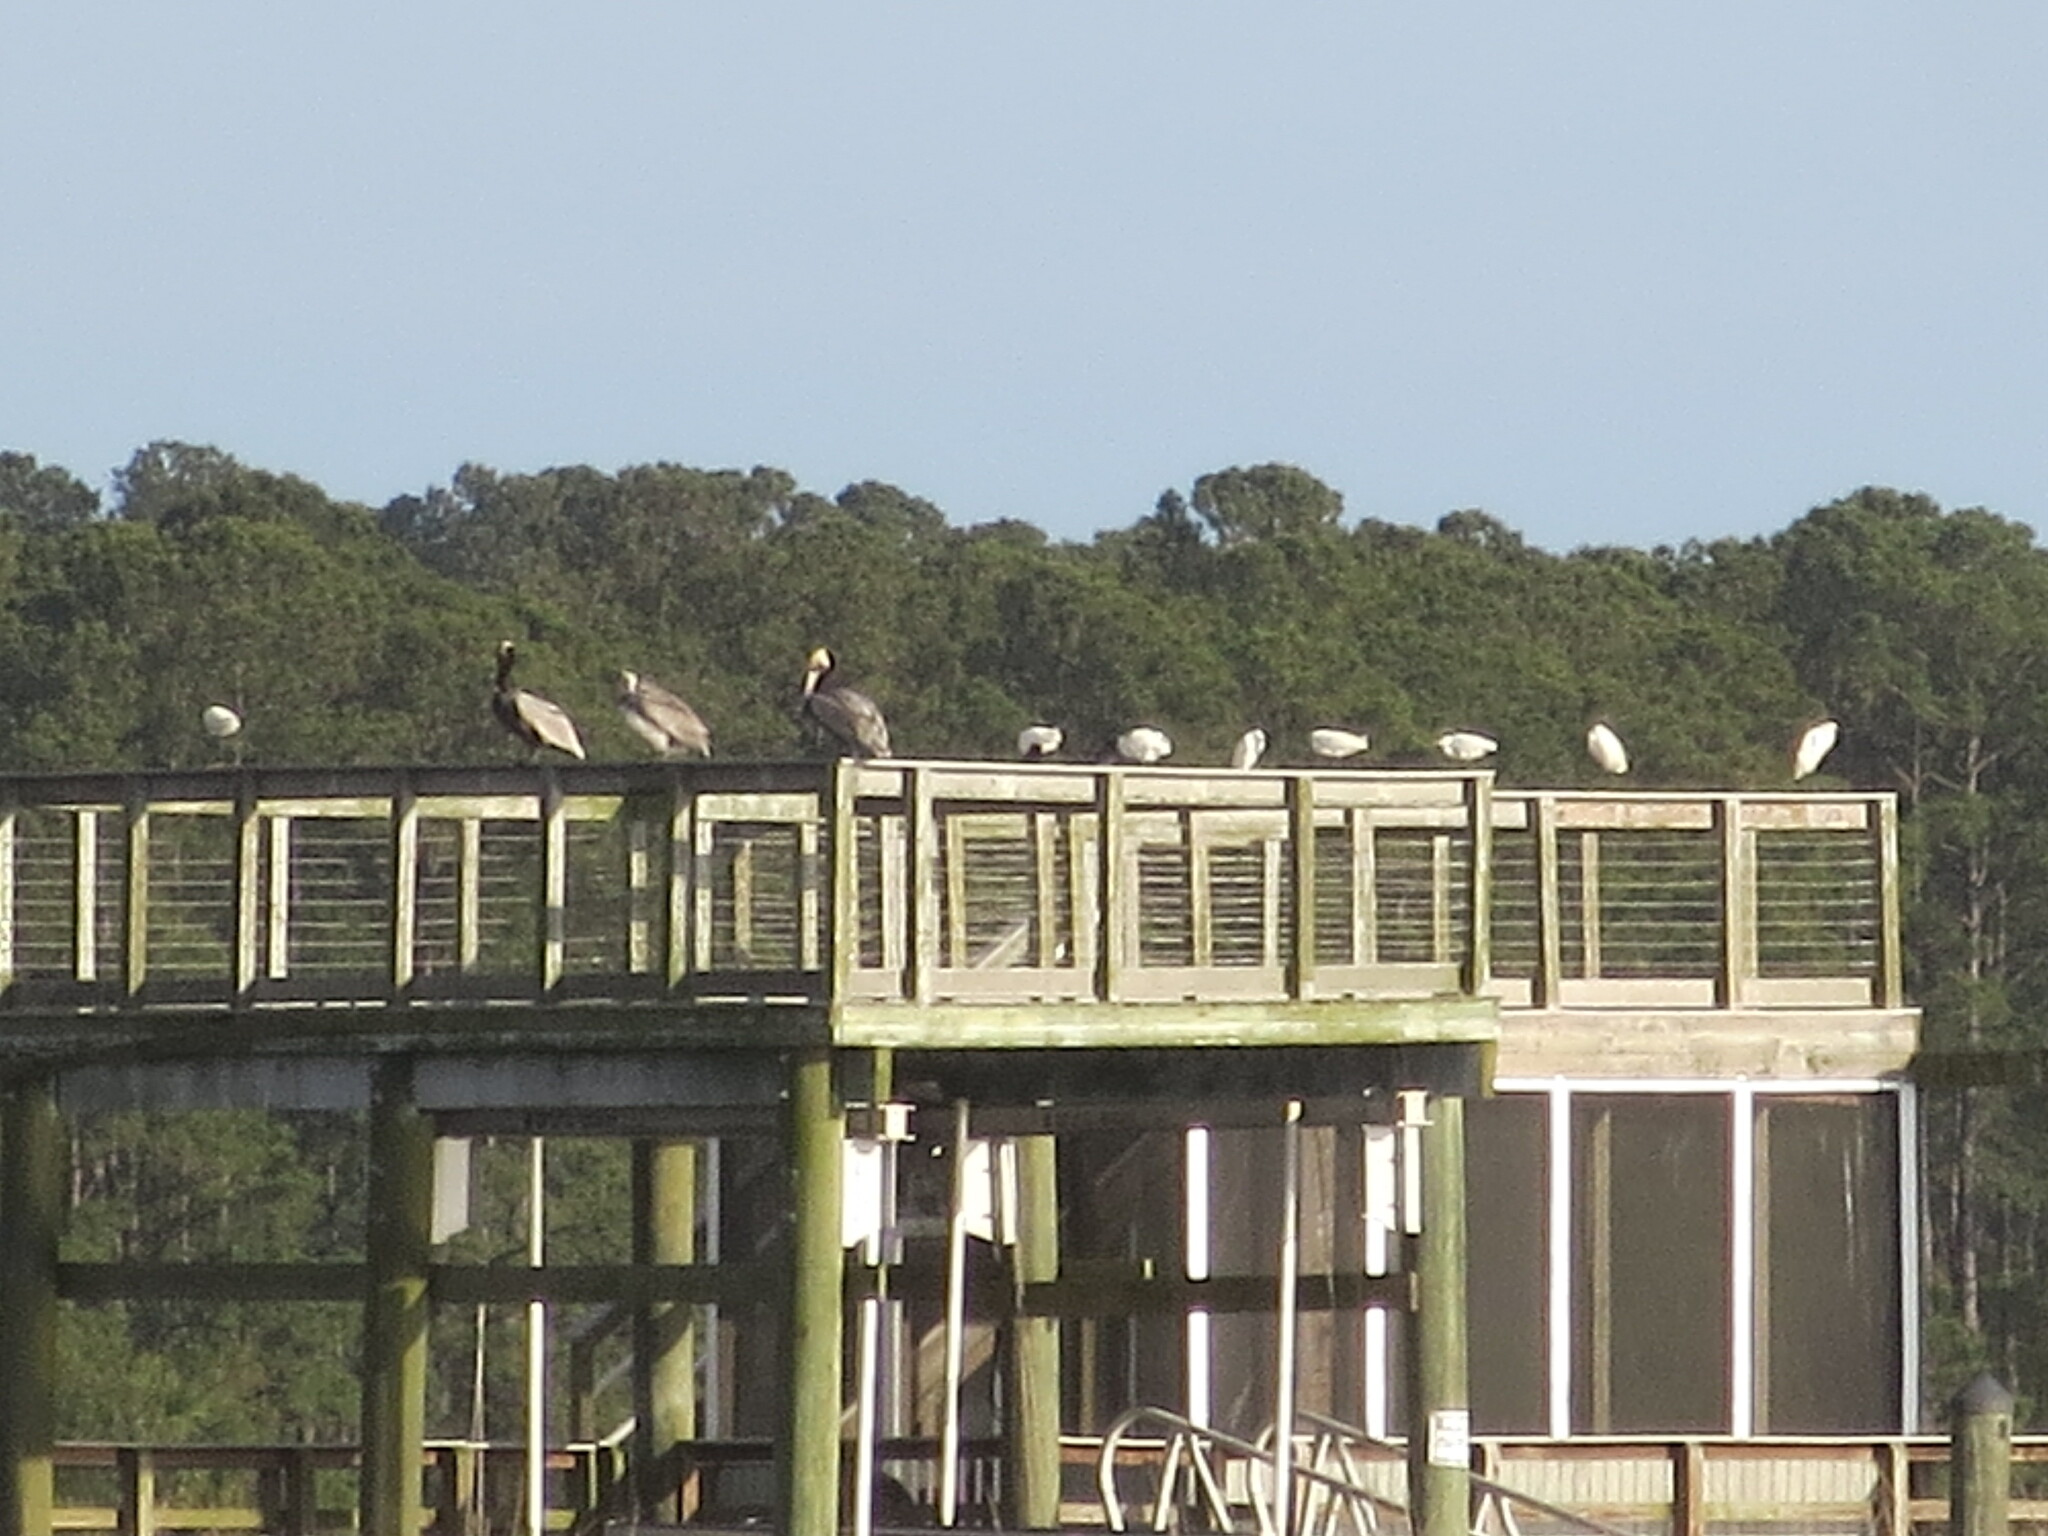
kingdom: Animalia
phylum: Chordata
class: Aves
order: Pelecaniformes
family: Pelecanidae
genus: Pelecanus
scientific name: Pelecanus occidentalis
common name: Brown pelican
